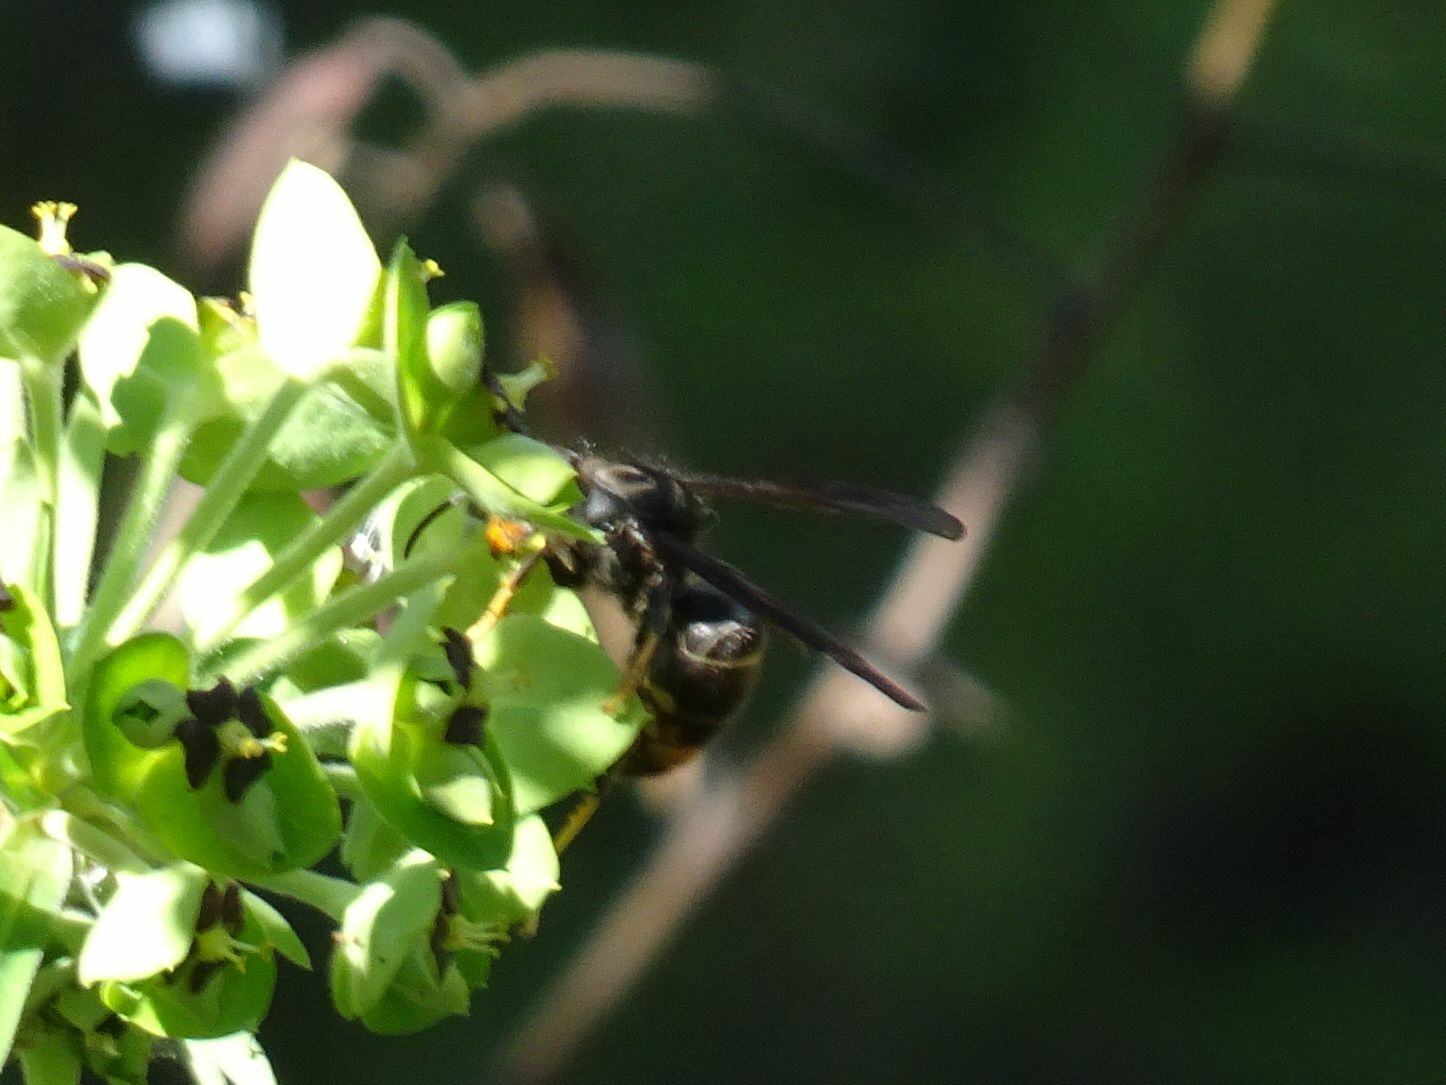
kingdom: Animalia
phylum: Arthropoda
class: Insecta
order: Hymenoptera
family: Vespidae
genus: Vespa
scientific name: Vespa velutina
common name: Asian hornet
